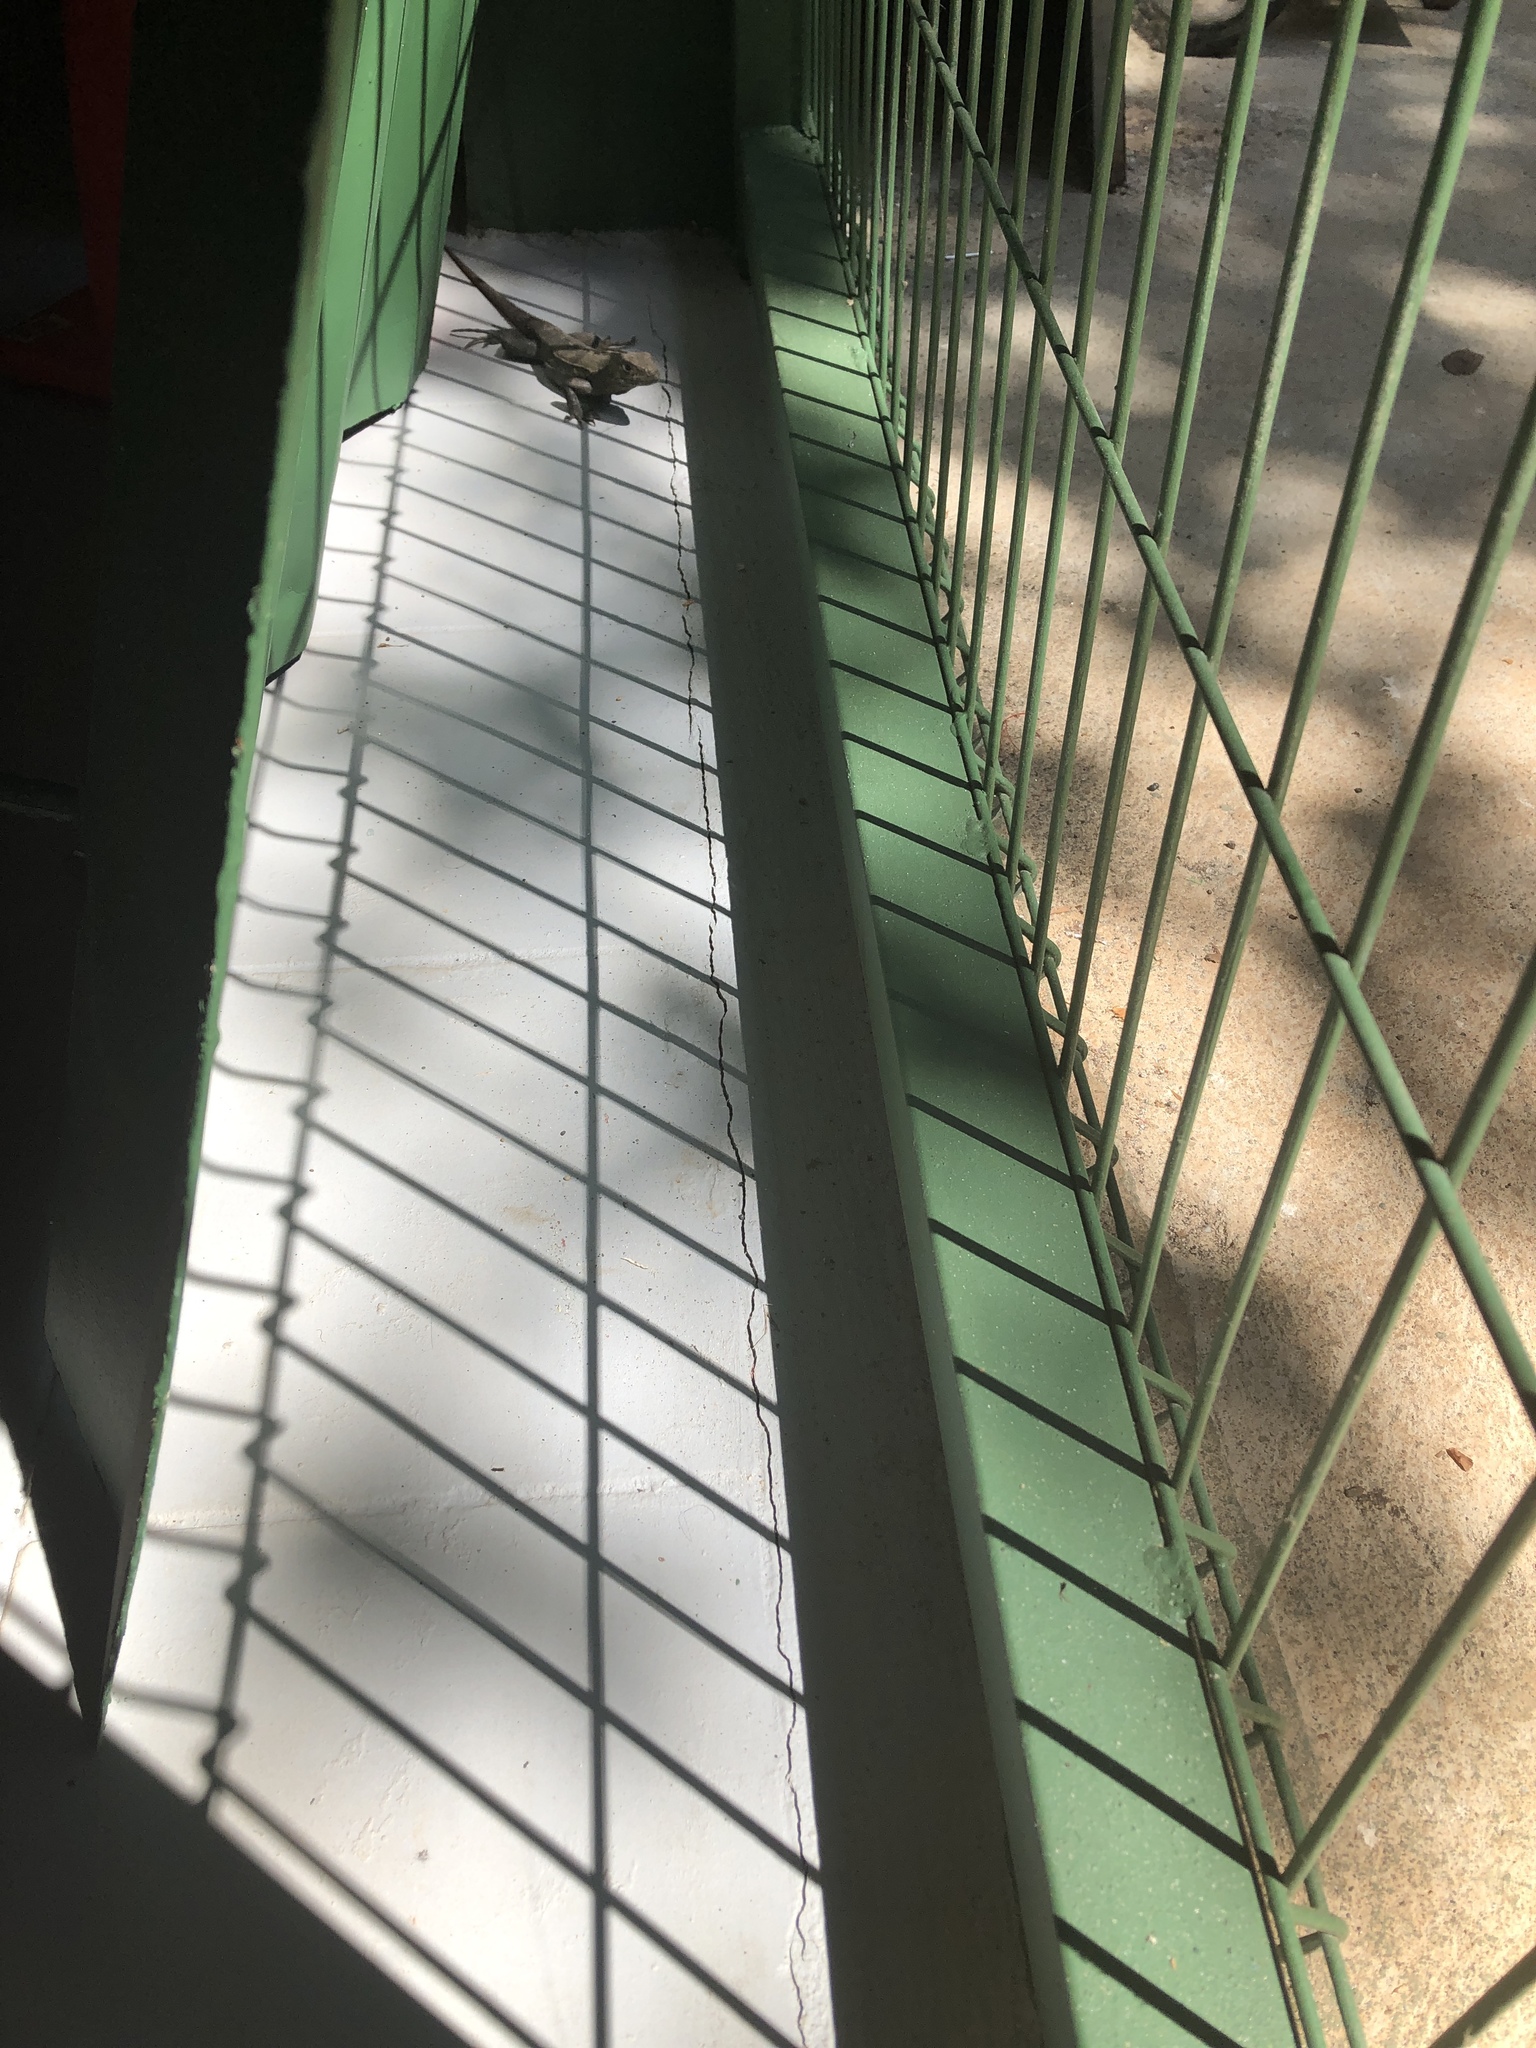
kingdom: Animalia
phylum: Chordata
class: Squamata
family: Iguanidae
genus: Ctenosaura
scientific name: Ctenosaura similis
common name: Black spiny-tailed iguana
